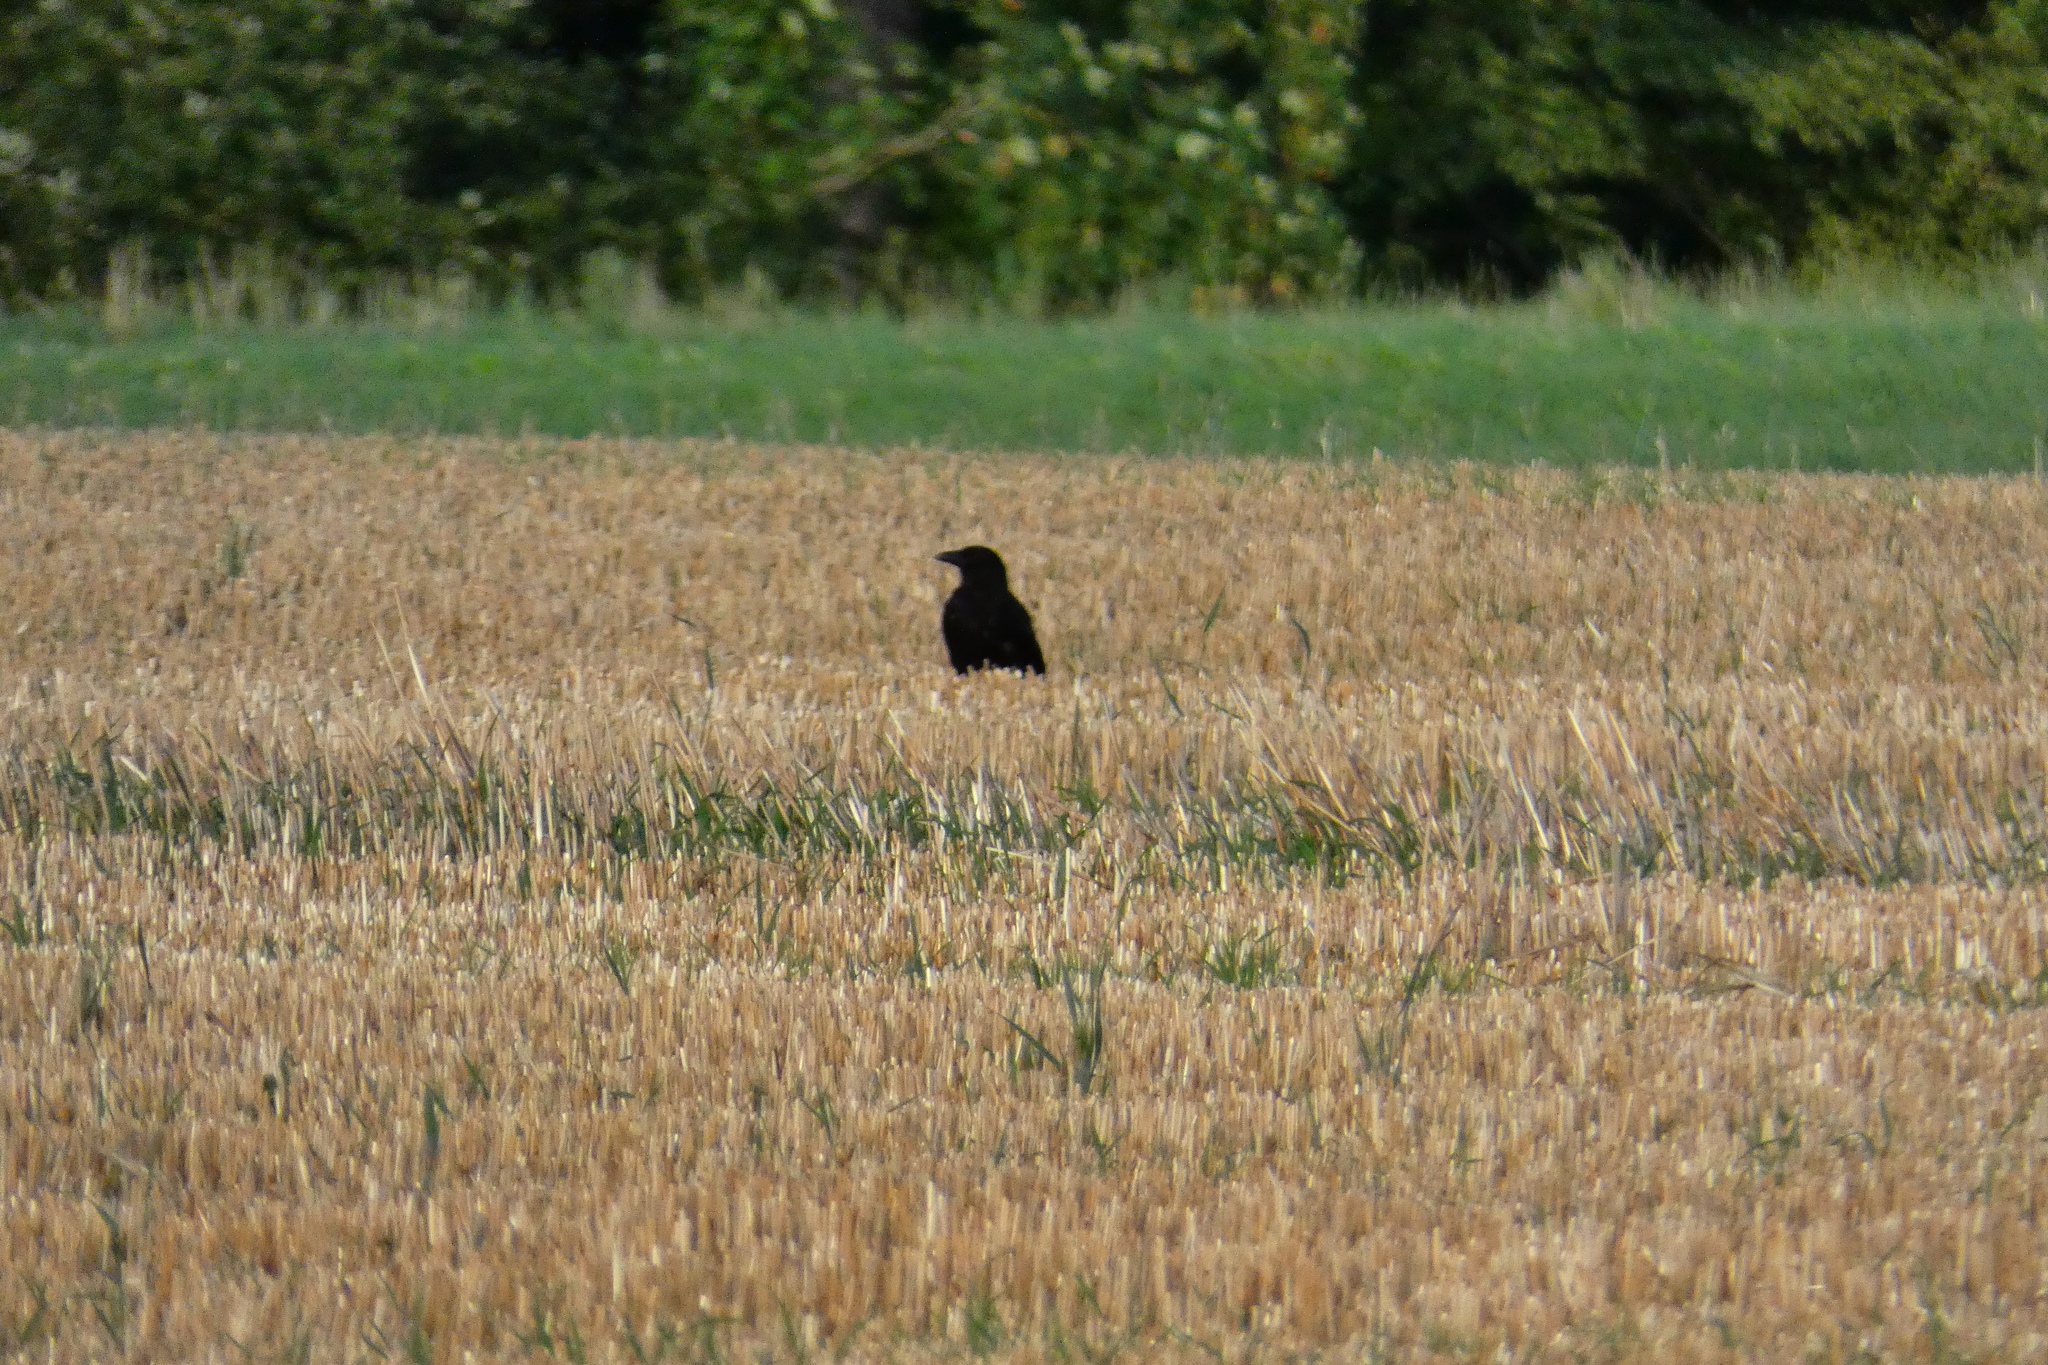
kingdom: Animalia
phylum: Chordata
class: Aves
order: Passeriformes
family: Corvidae
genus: Corvus
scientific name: Corvus corone
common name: Carrion crow
